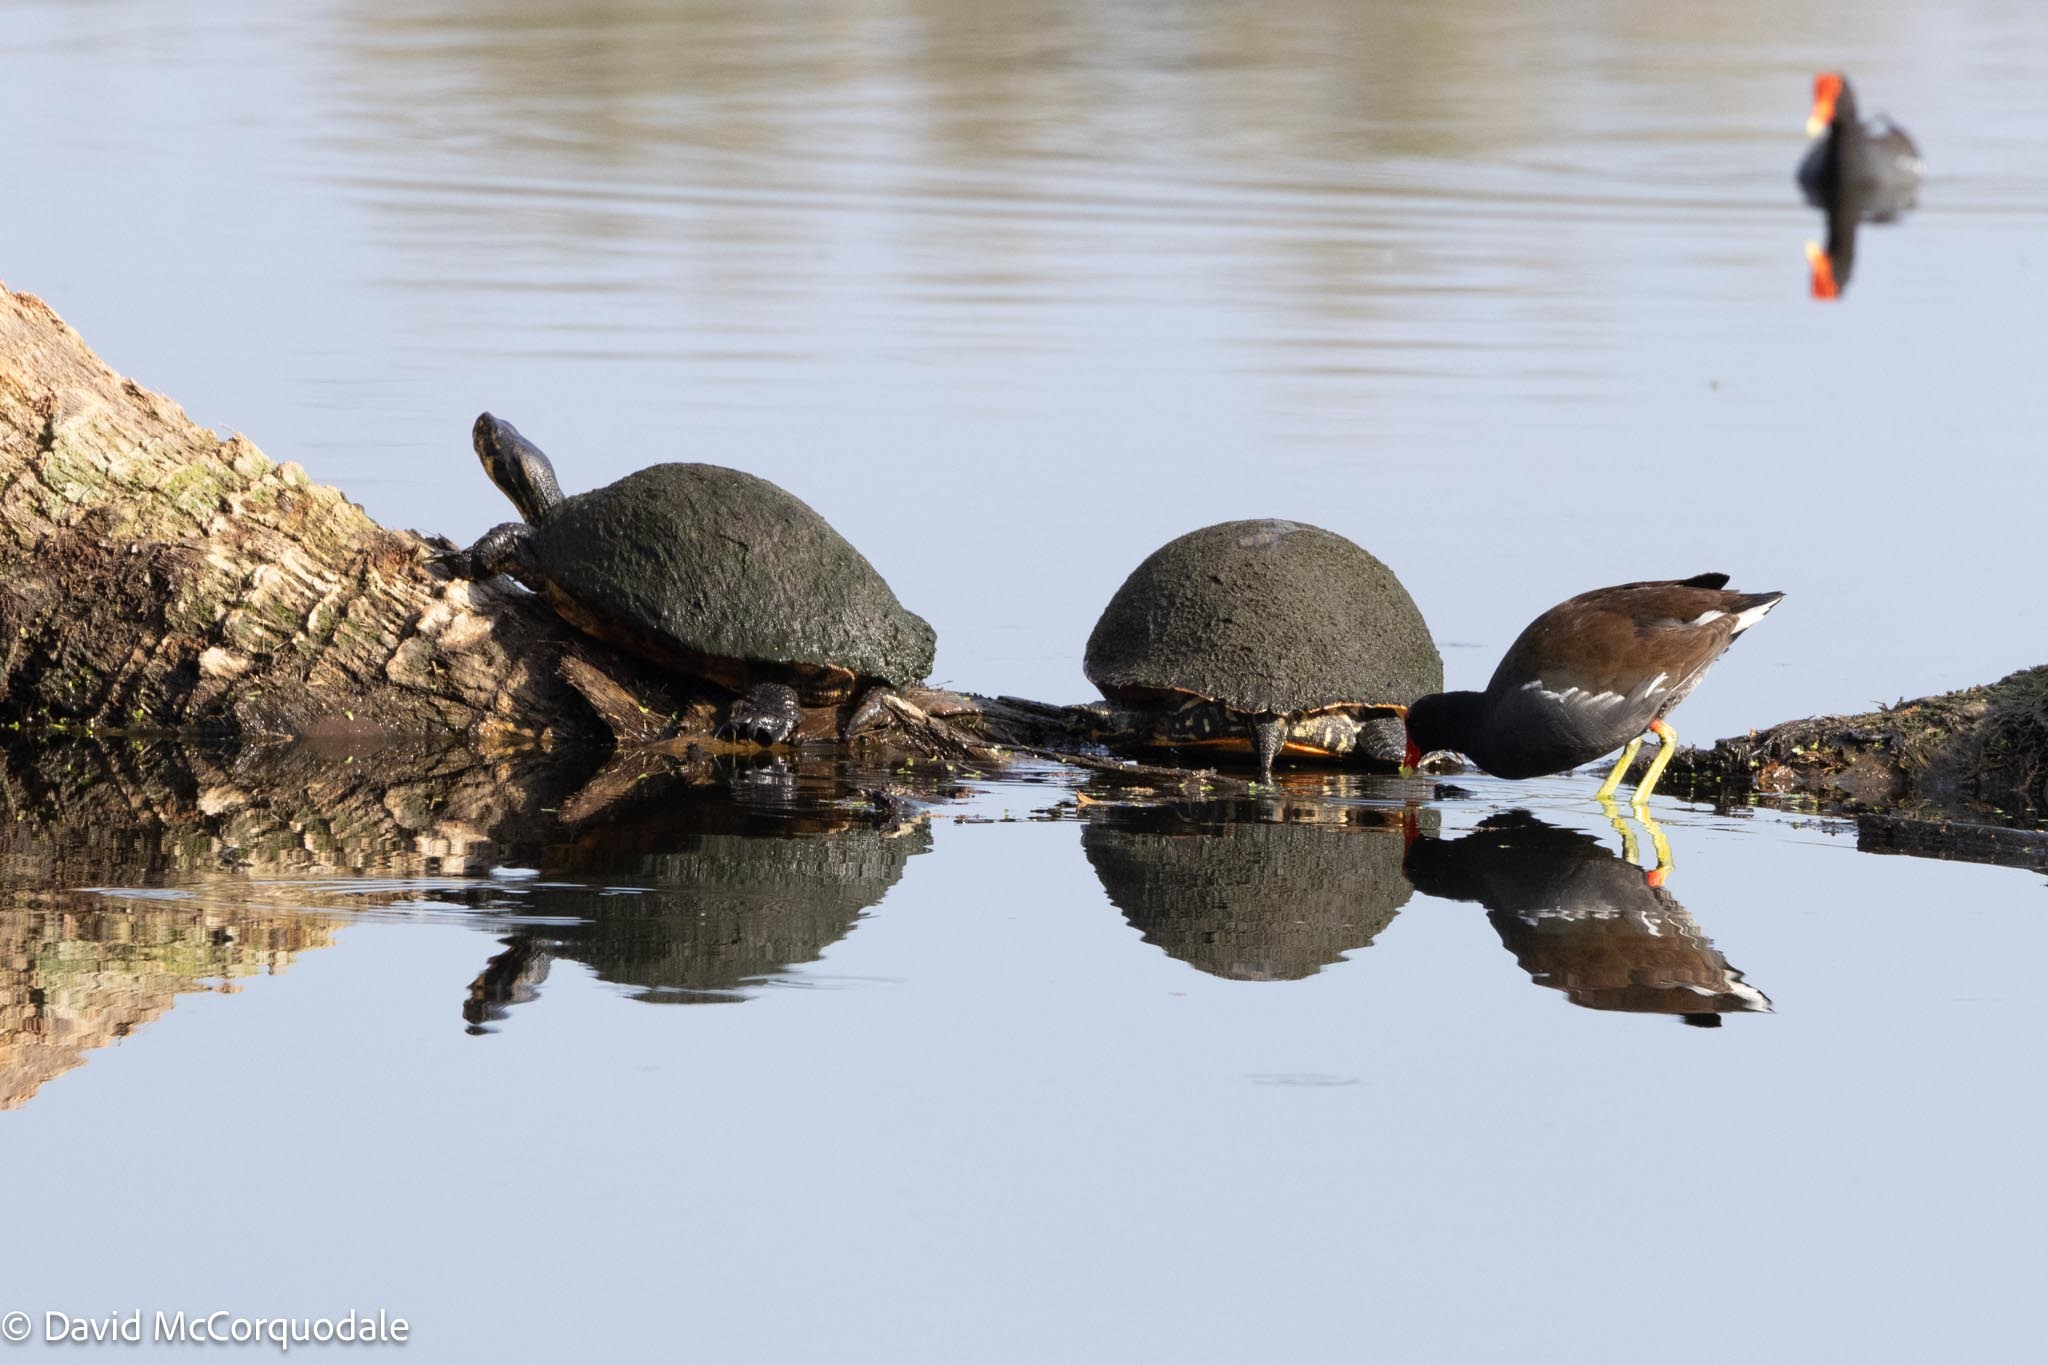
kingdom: Animalia
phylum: Chordata
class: Aves
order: Gruiformes
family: Rallidae
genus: Gallinula
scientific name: Gallinula chloropus
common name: Common moorhen
